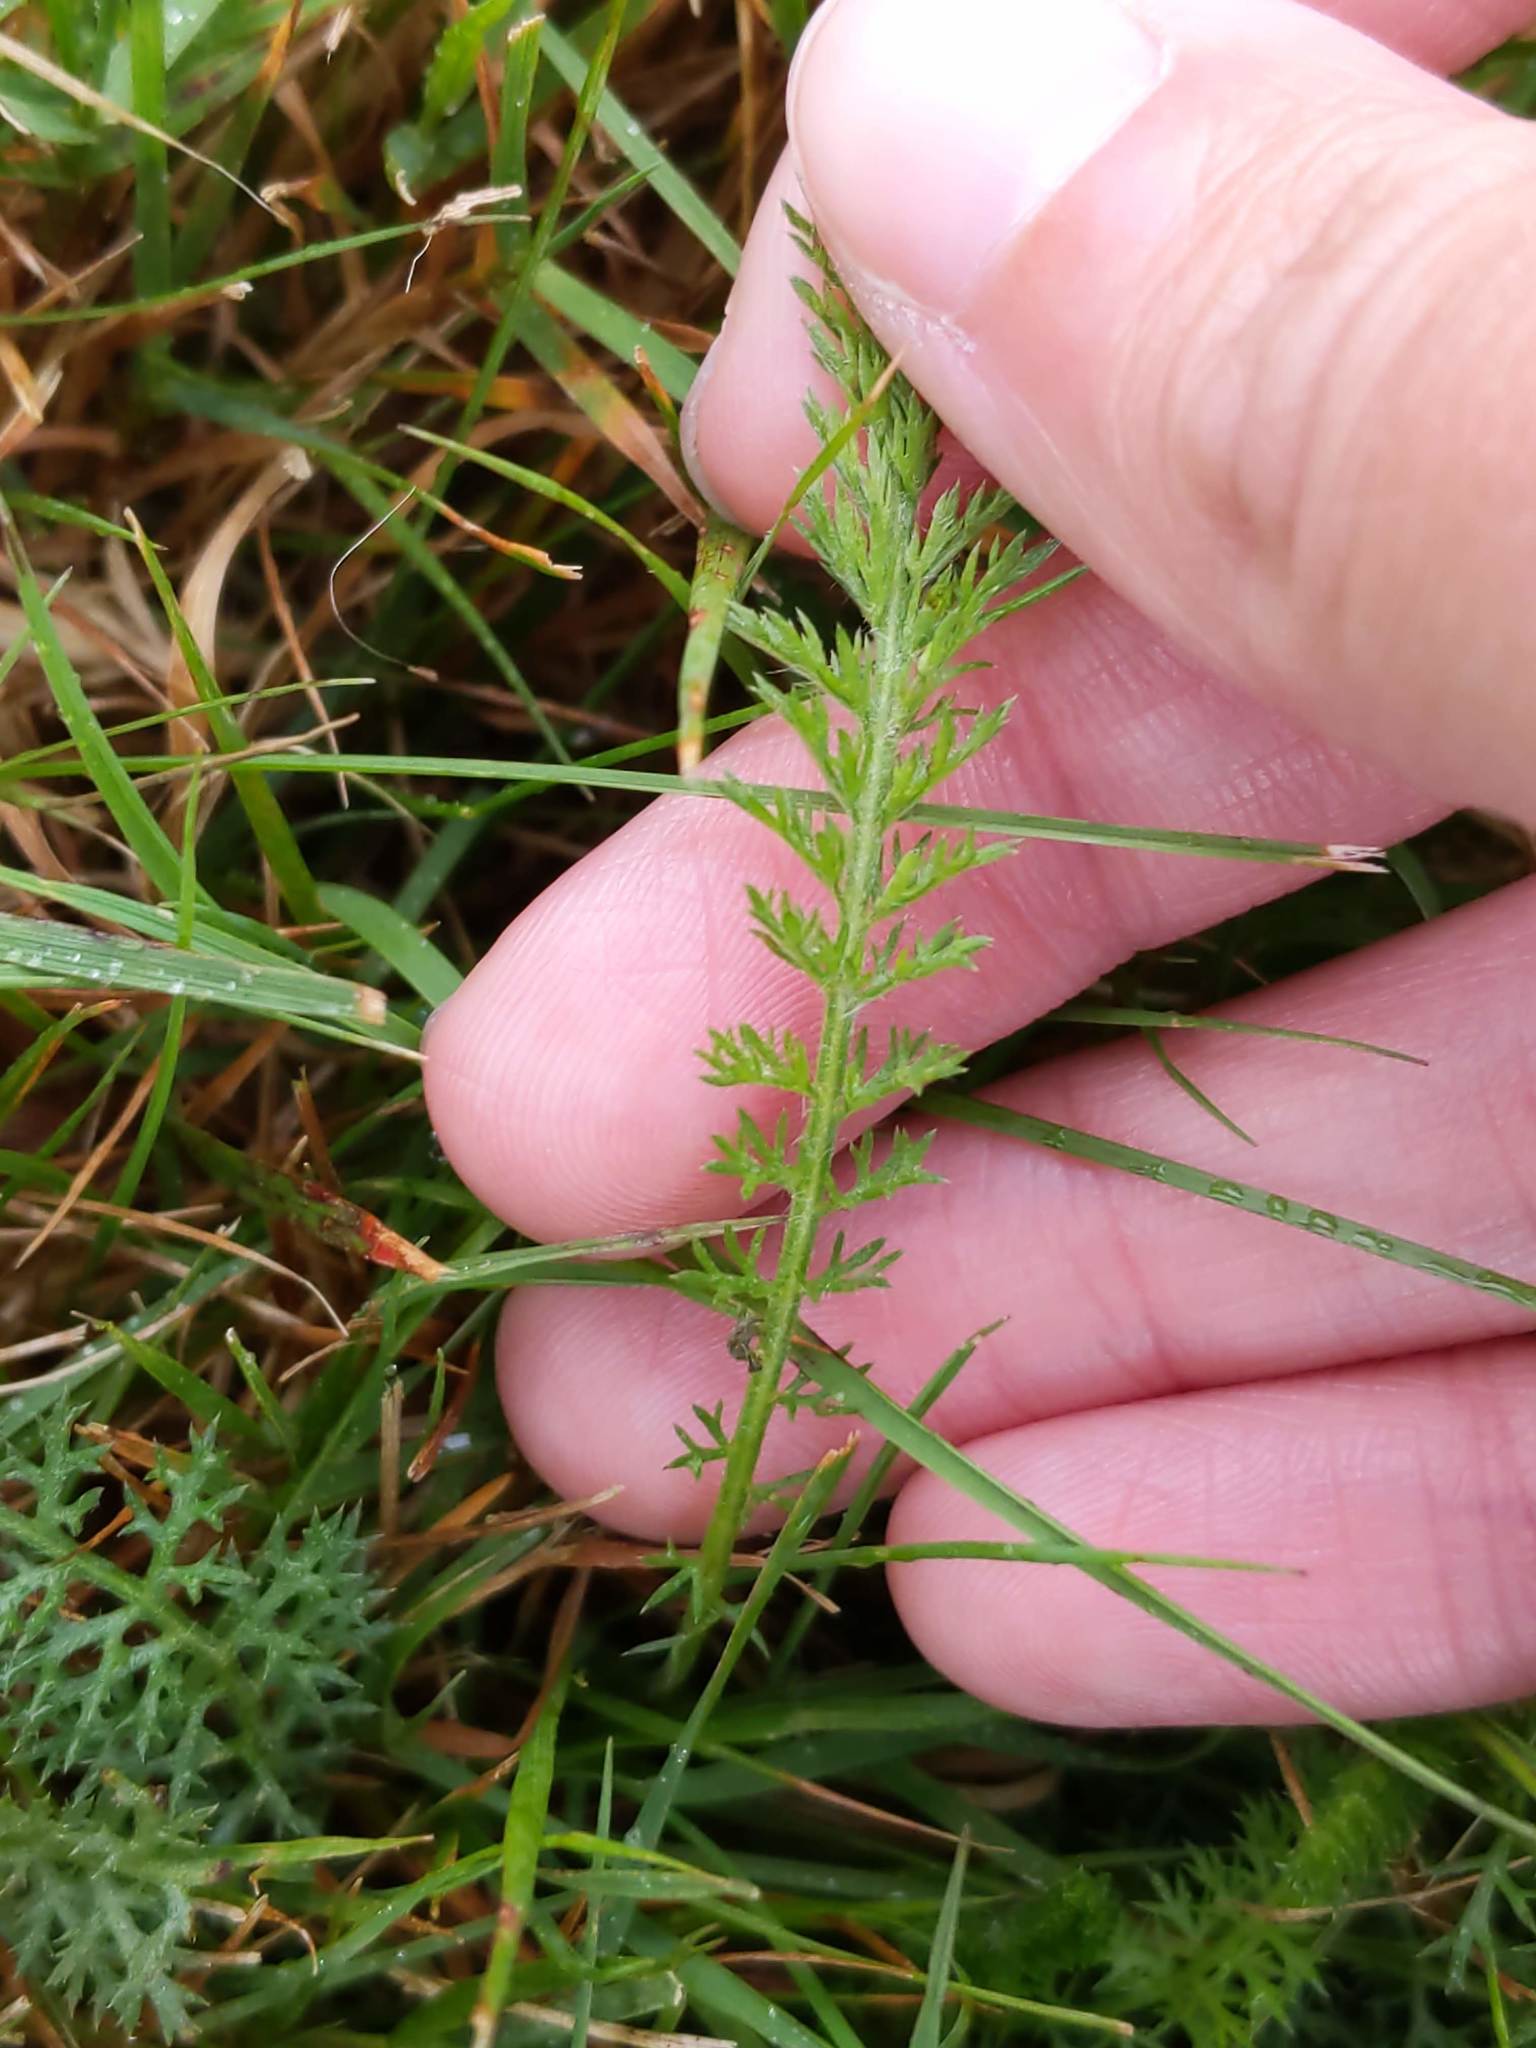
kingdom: Plantae
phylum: Tracheophyta
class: Magnoliopsida
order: Asterales
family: Asteraceae
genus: Achillea
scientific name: Achillea millefolium
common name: Yarrow
